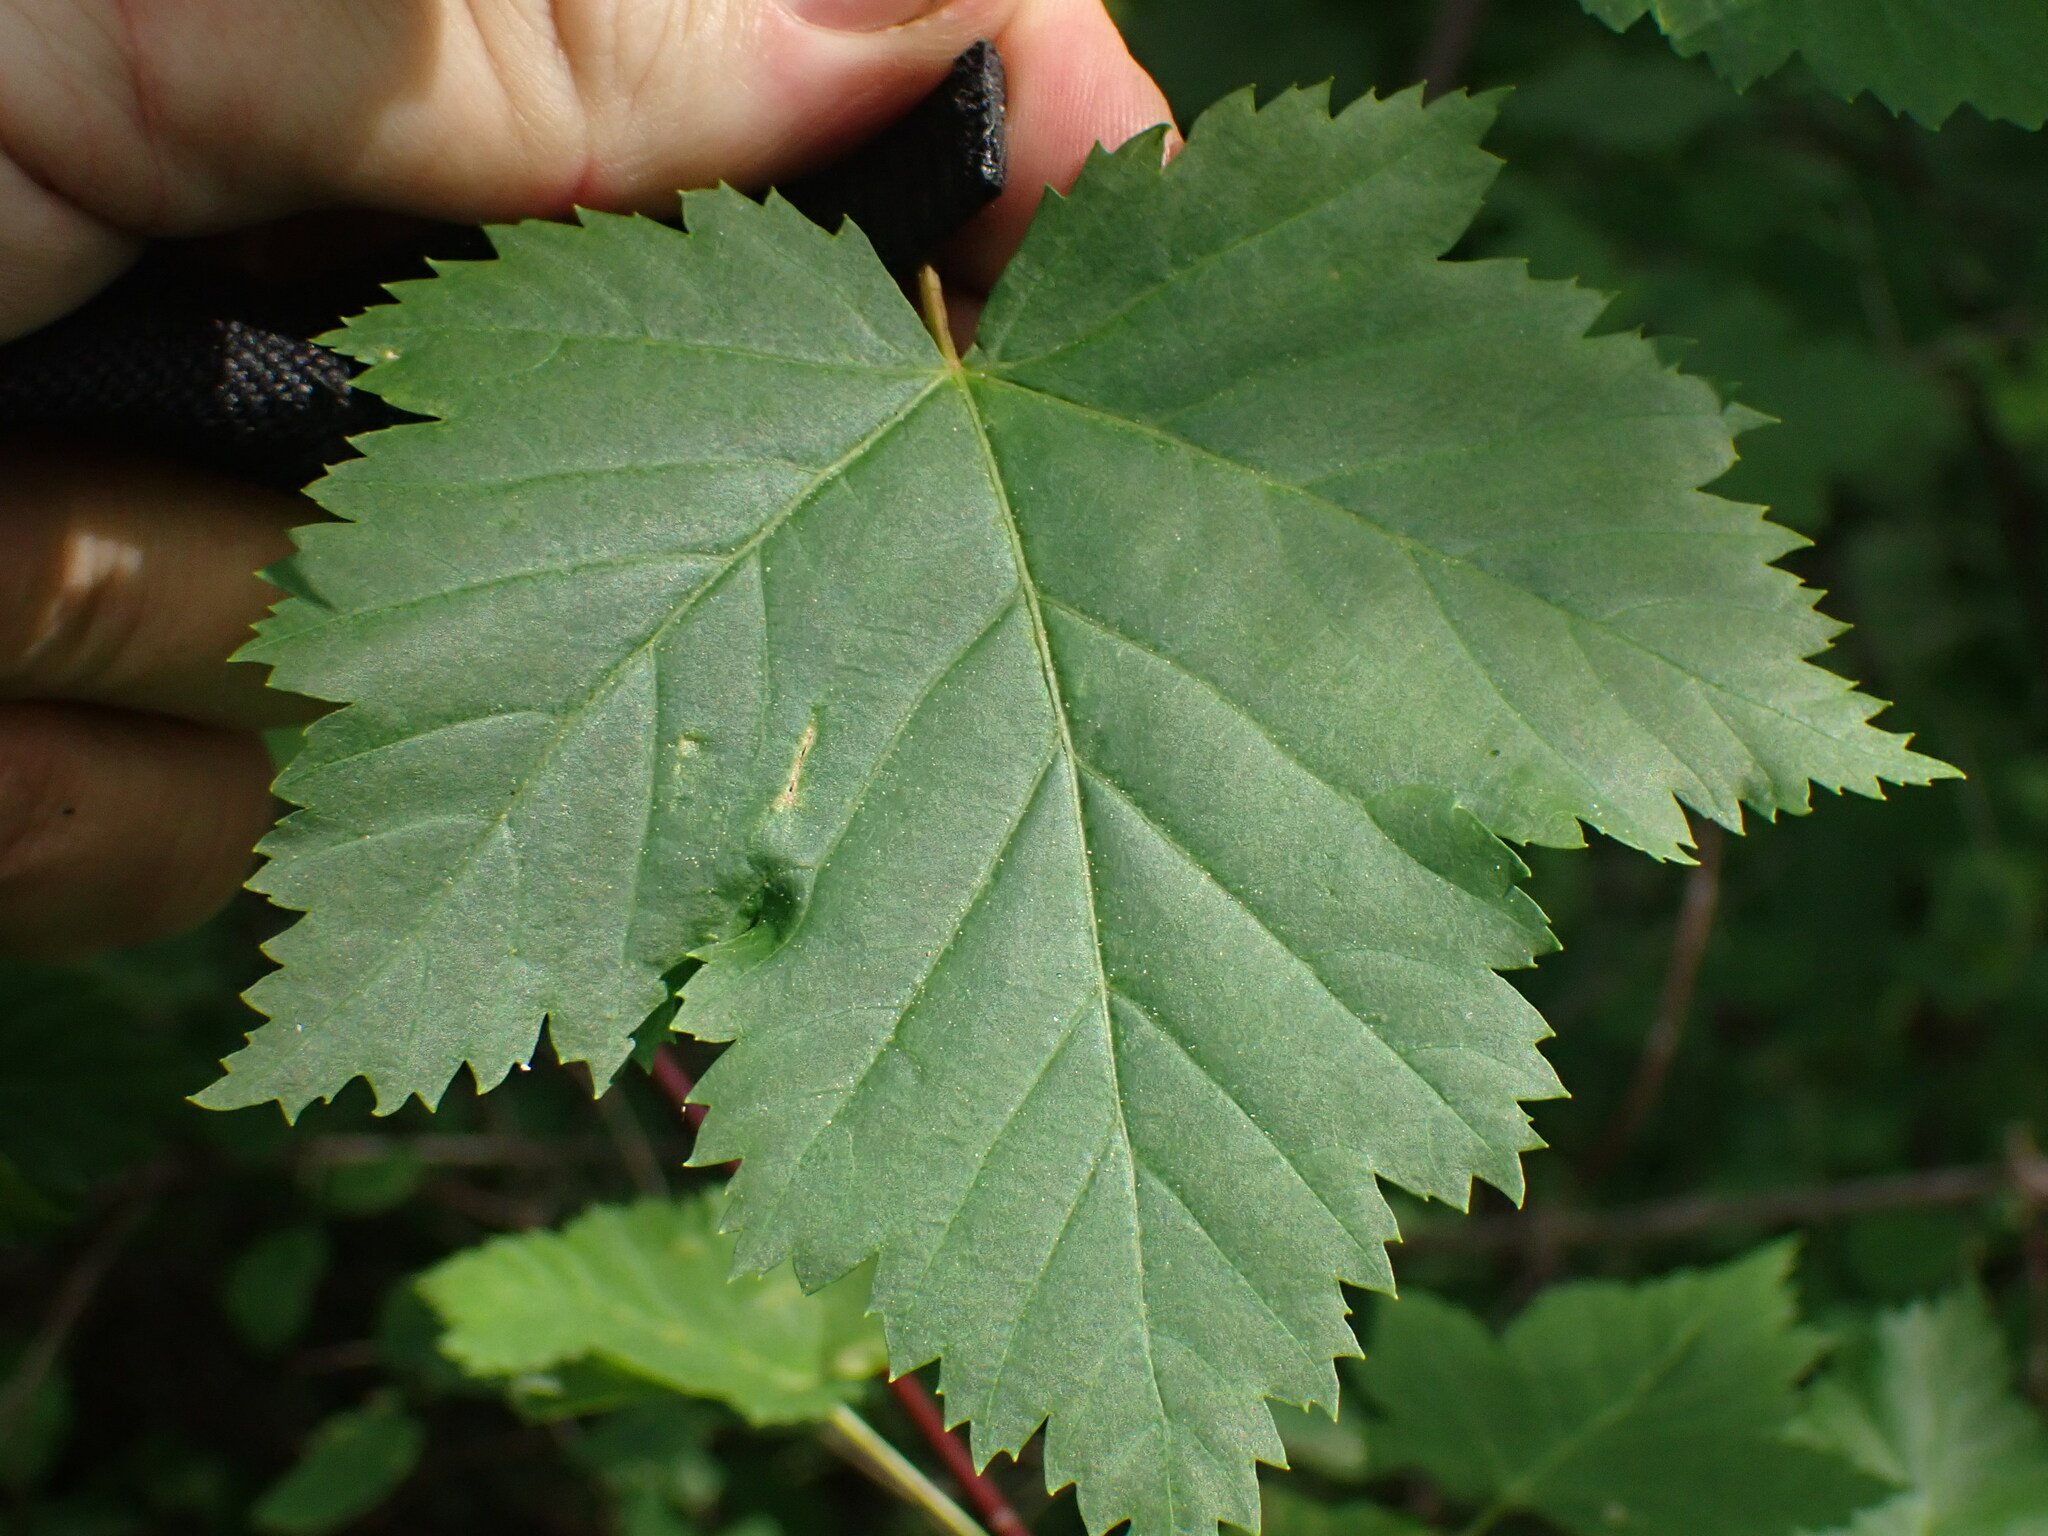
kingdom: Plantae
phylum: Tracheophyta
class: Magnoliopsida
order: Sapindales
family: Sapindaceae
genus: Acer
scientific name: Acer glabrum
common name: Rocky mountain maple
